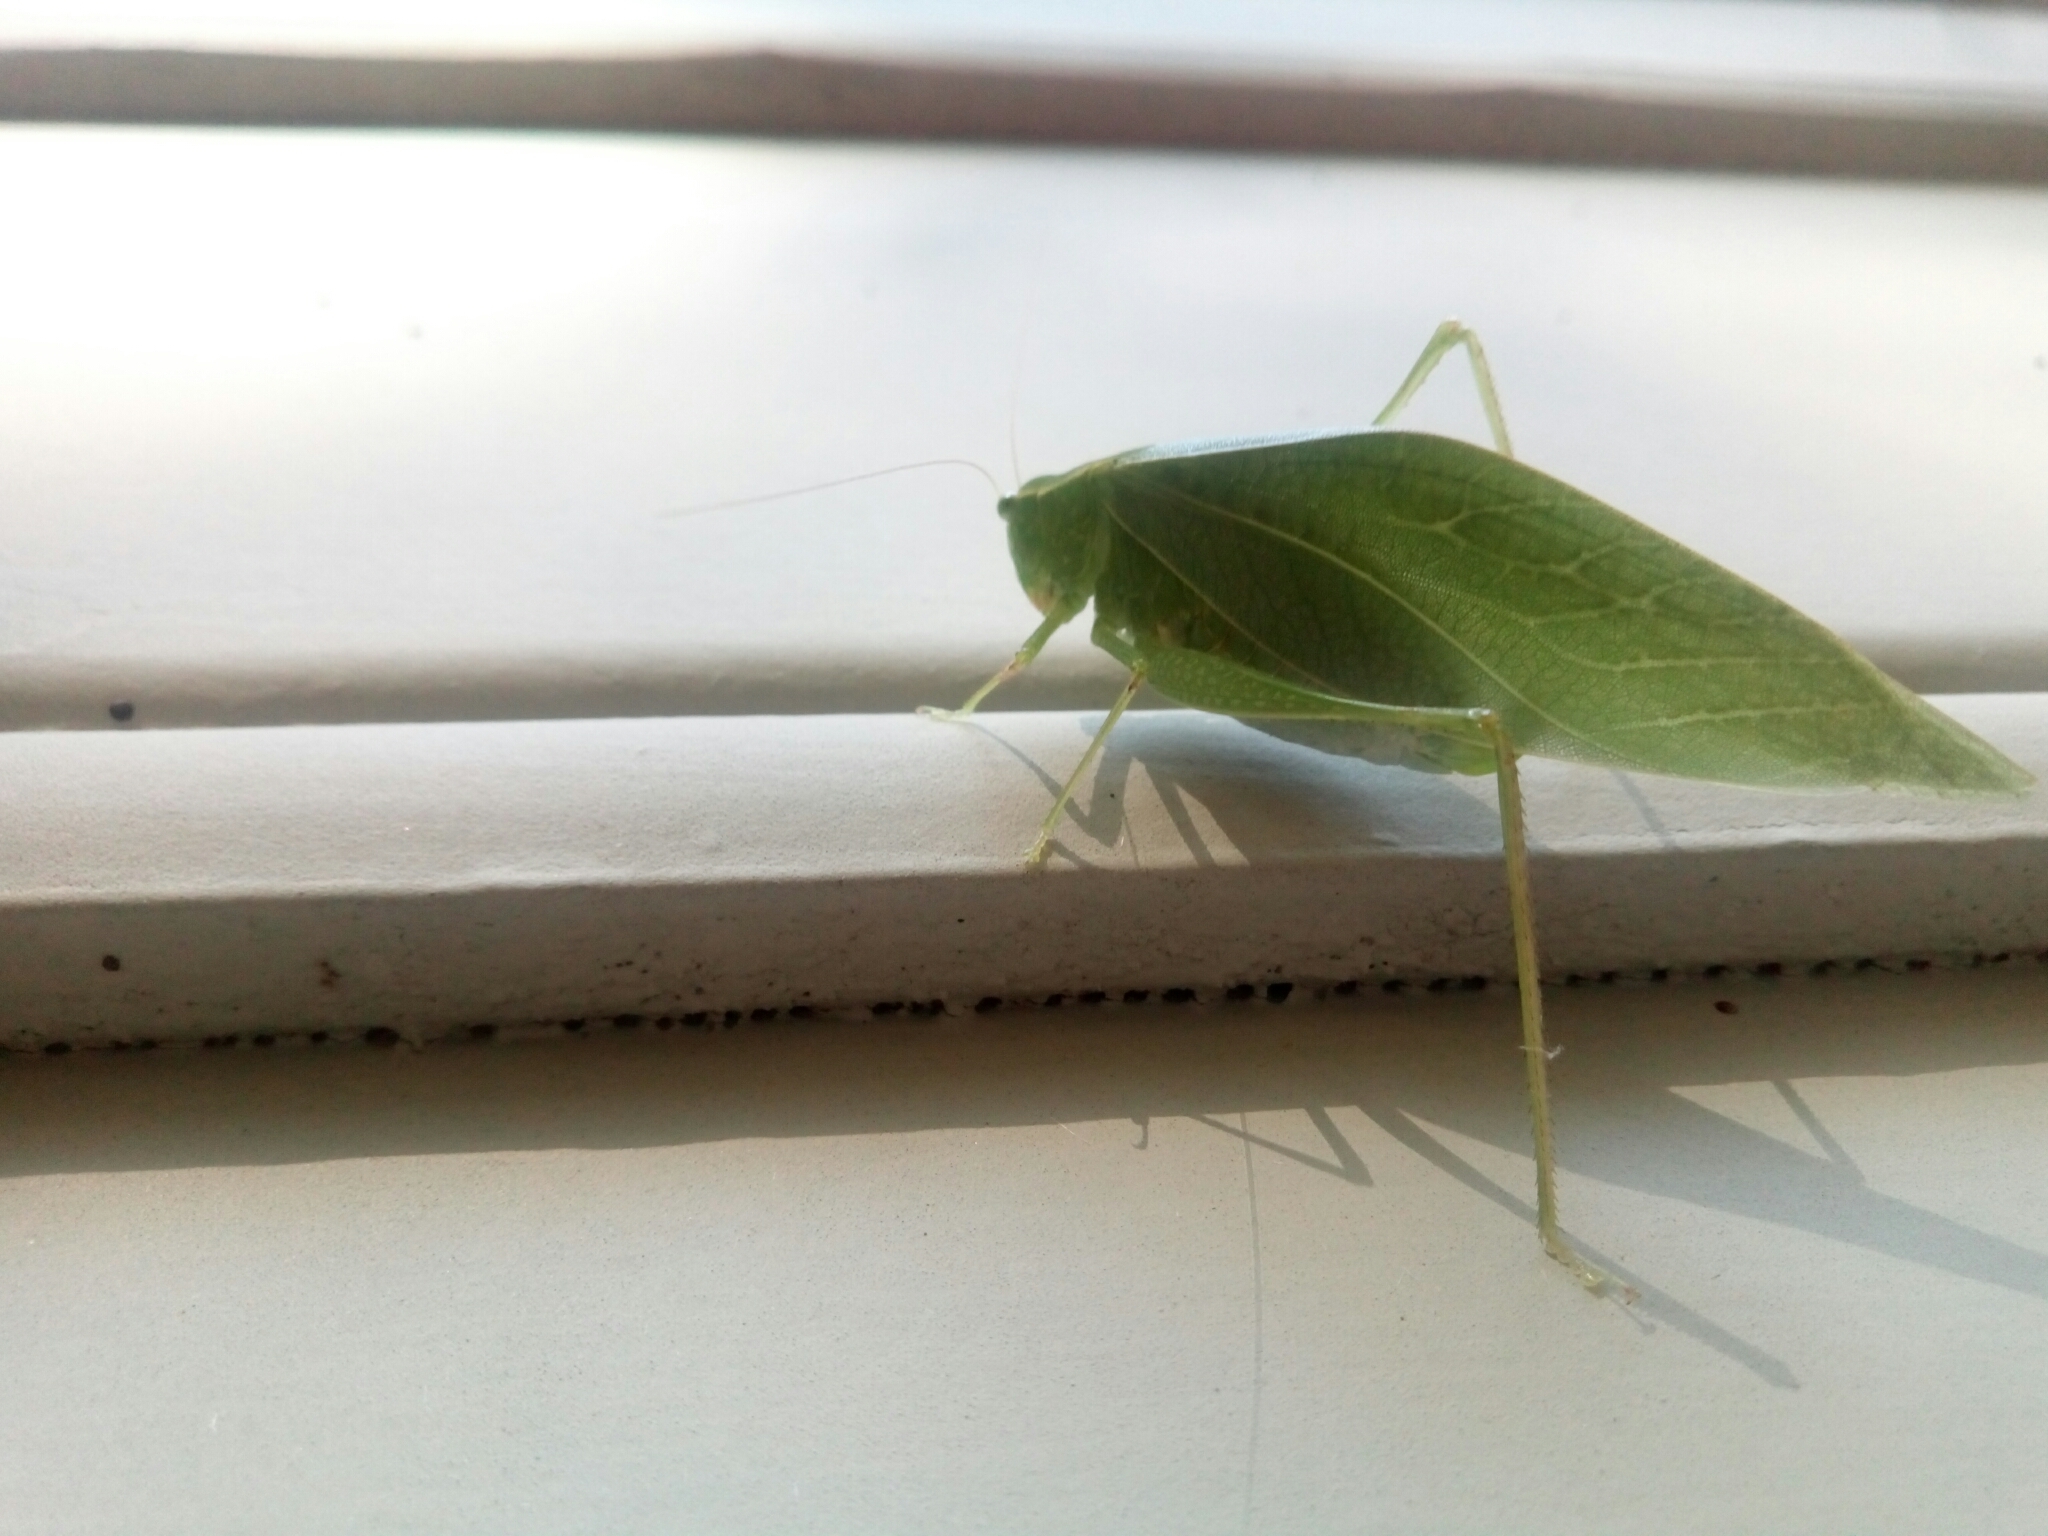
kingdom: Animalia
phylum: Arthropoda
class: Insecta
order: Orthoptera
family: Tettigoniidae
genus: Microcentrum
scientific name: Microcentrum retinerve
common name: Angular-winged katydid
